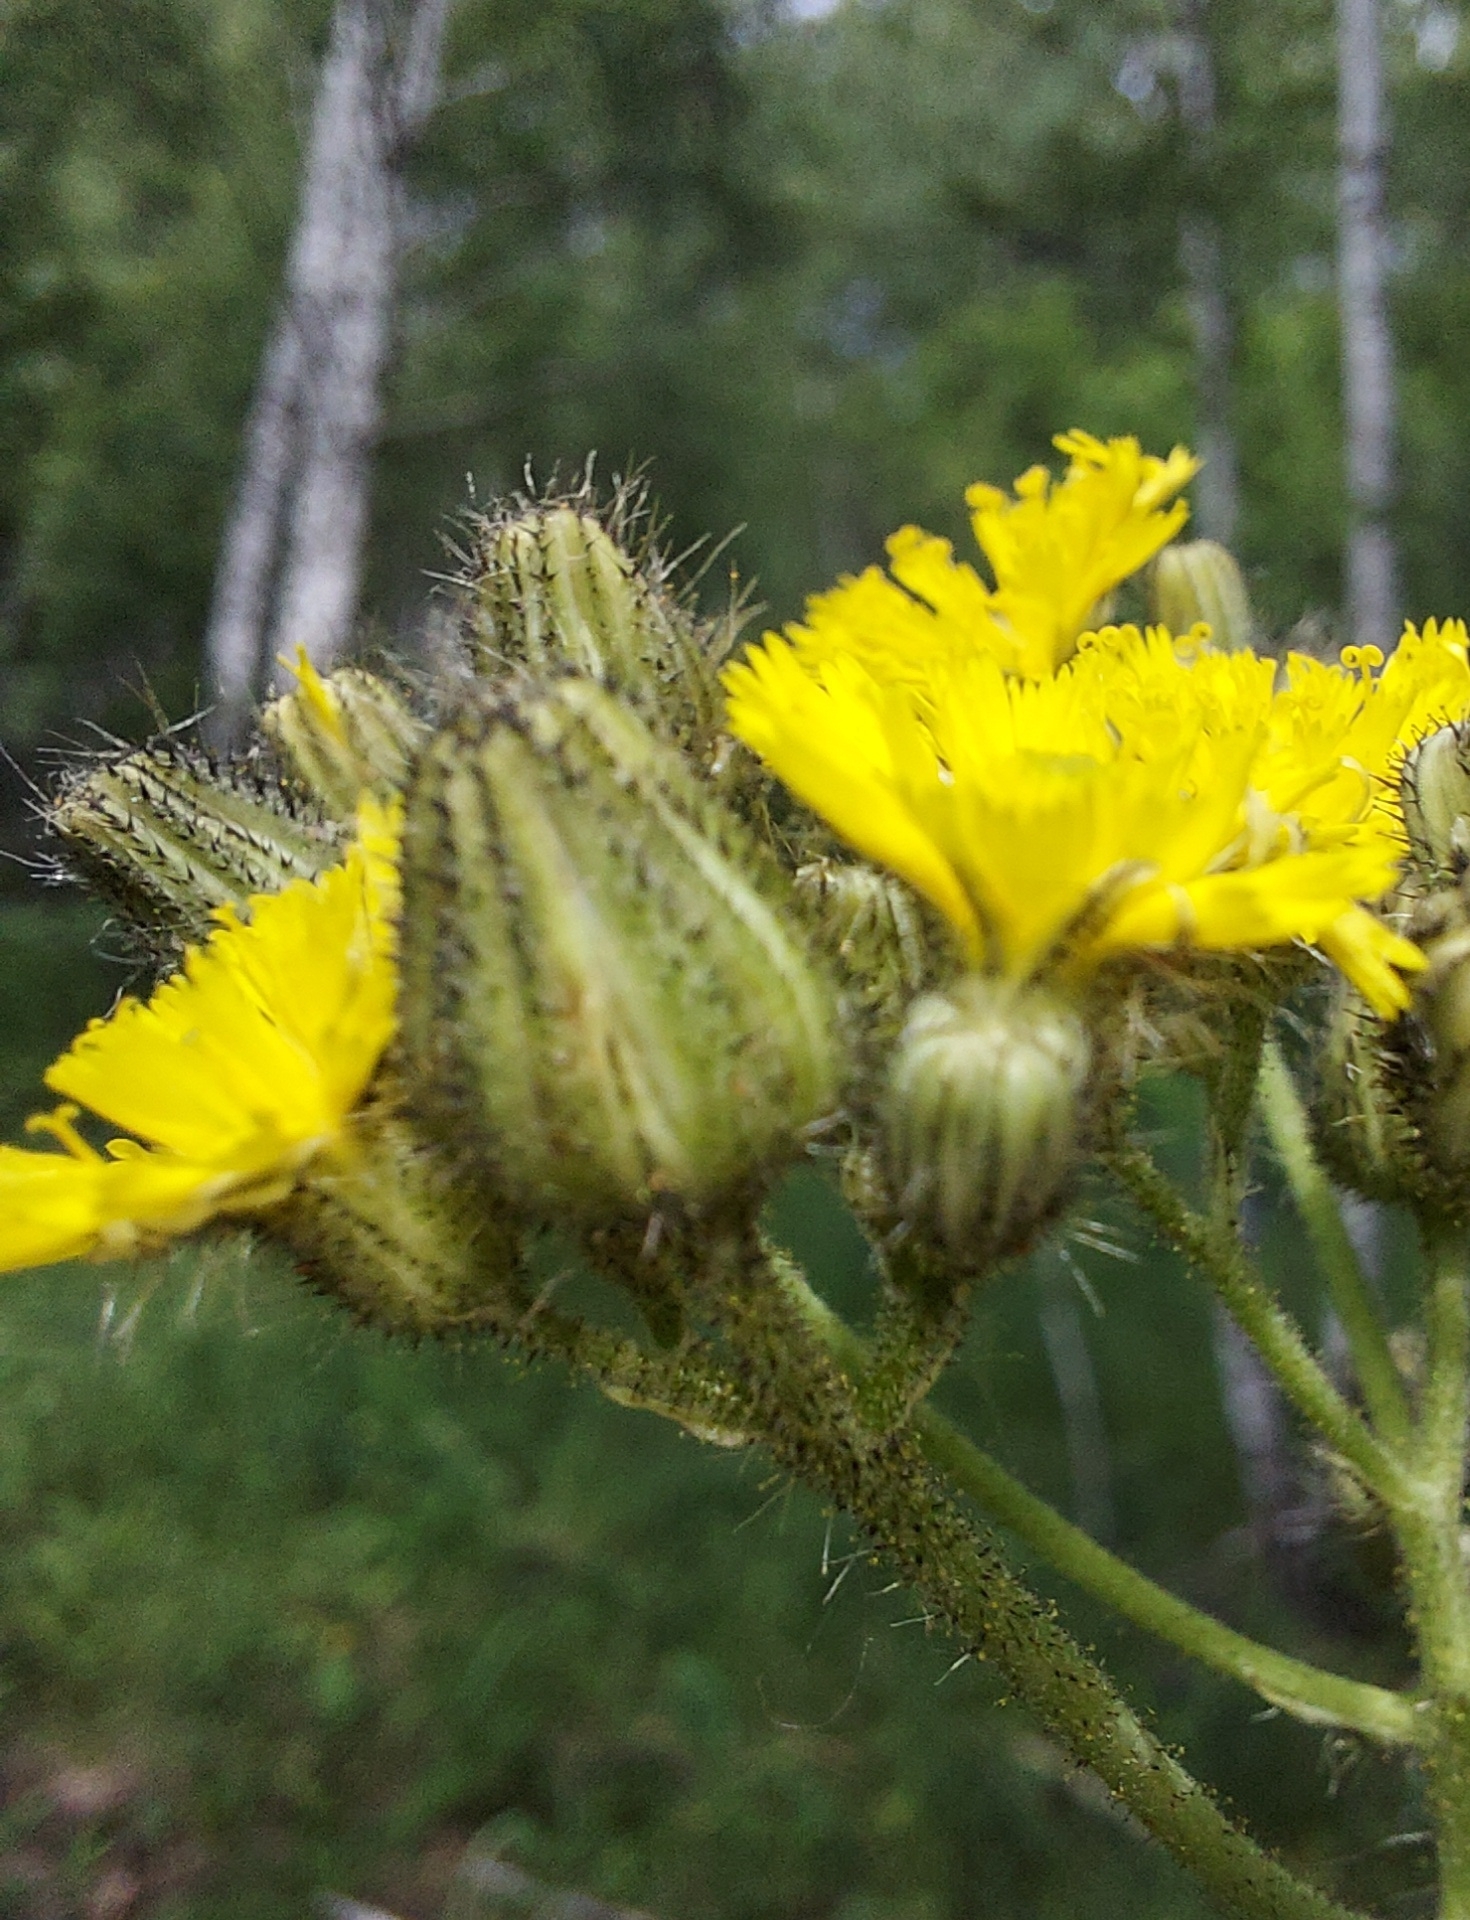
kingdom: Plantae
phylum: Tracheophyta
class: Magnoliopsida
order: Asterales
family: Asteraceae
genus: Pilosella
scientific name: Pilosella
